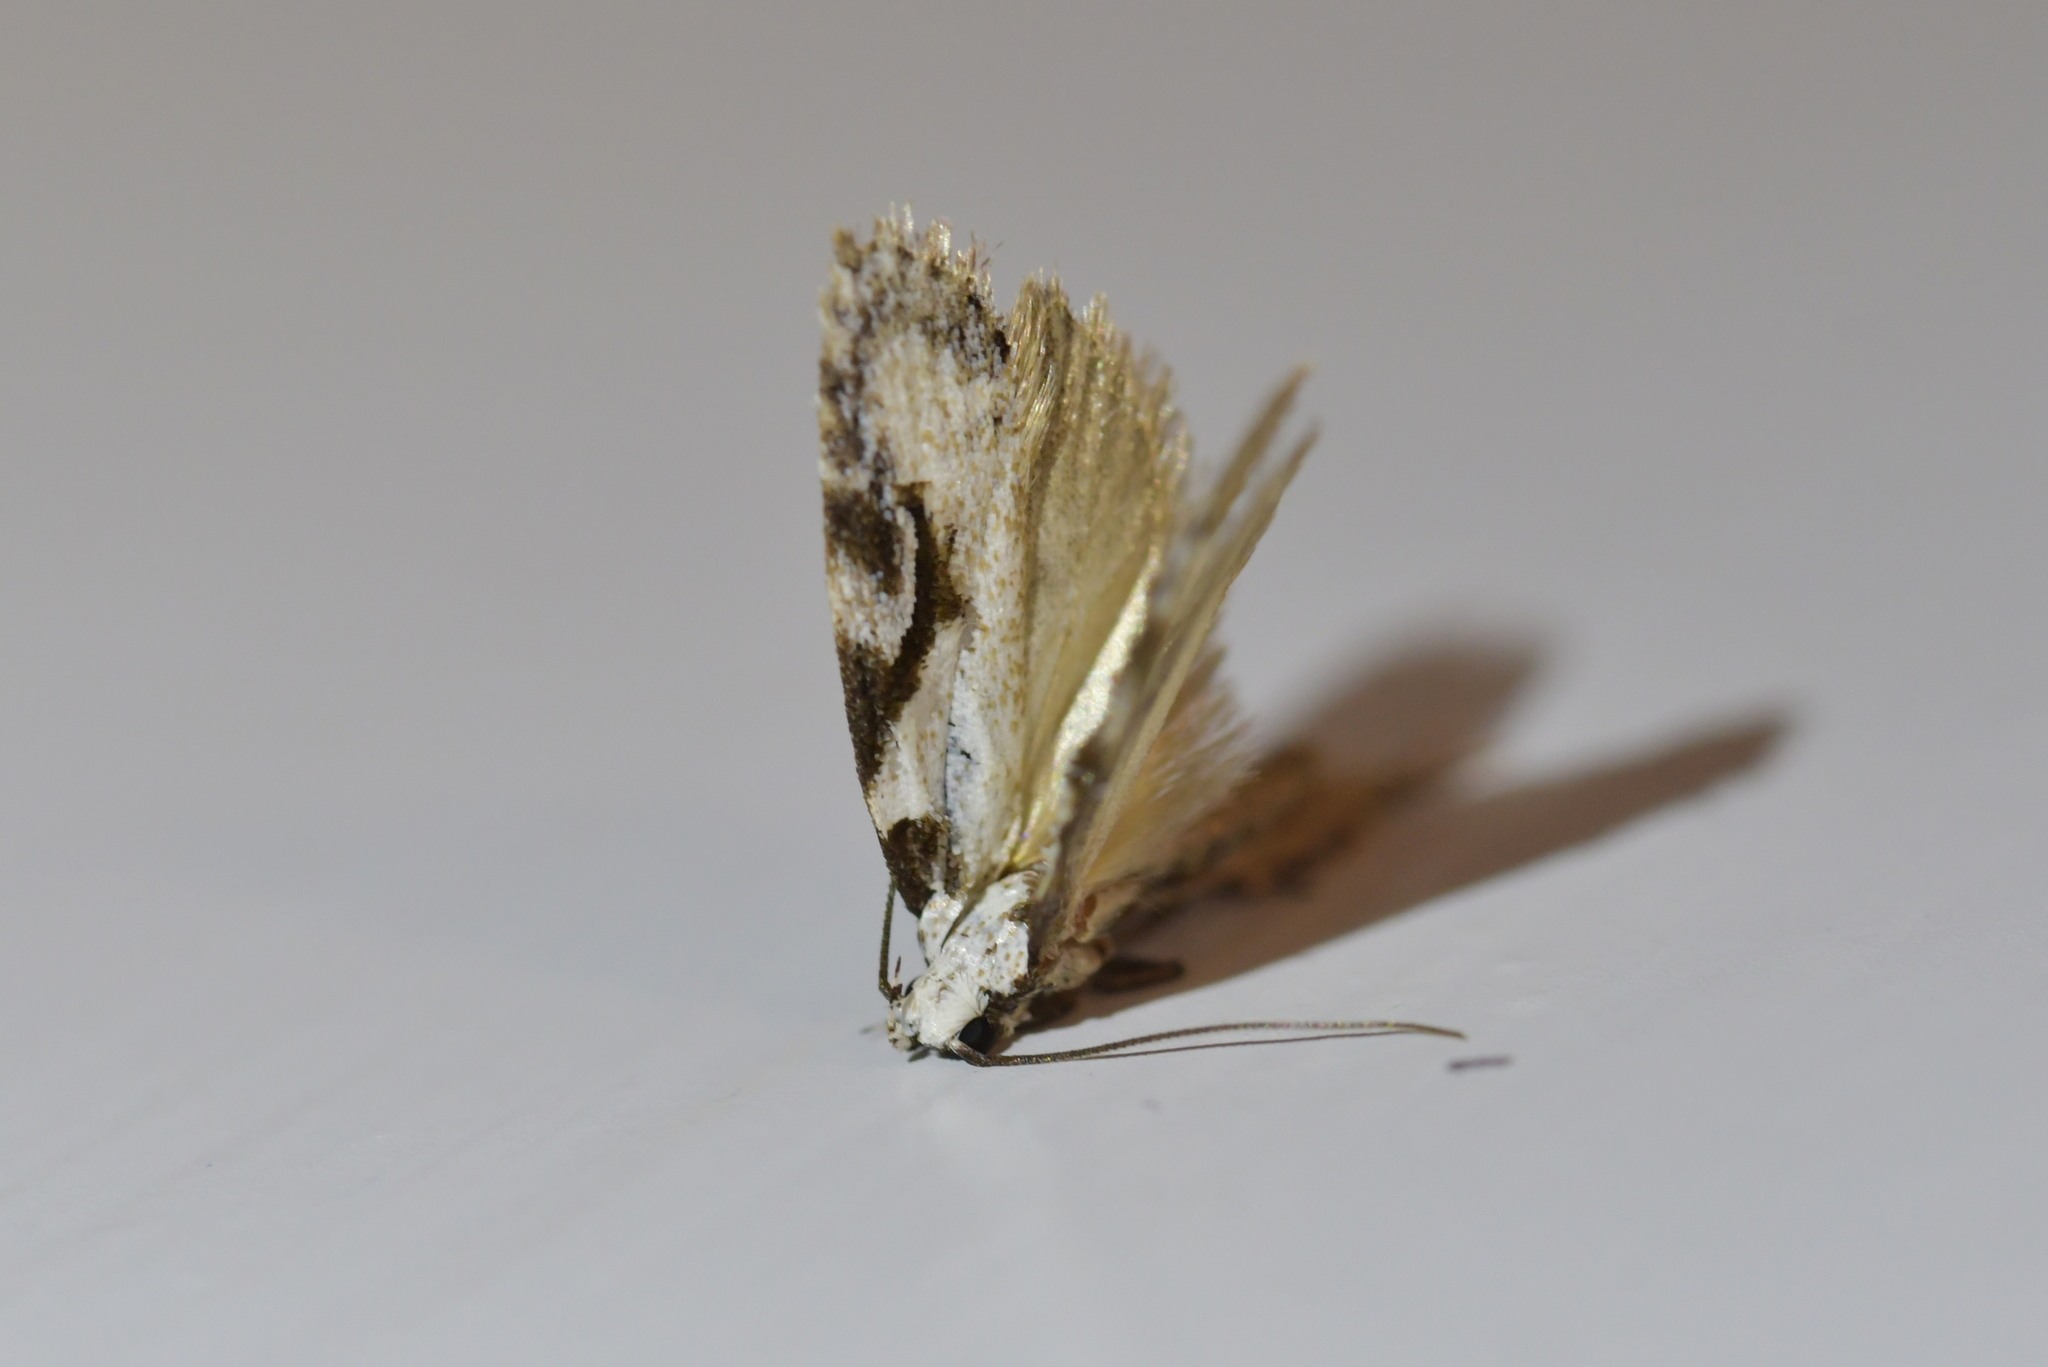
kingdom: Animalia
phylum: Arthropoda
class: Insecta
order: Lepidoptera
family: Oecophoridae
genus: Izatha
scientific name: Izatha mesoschista
